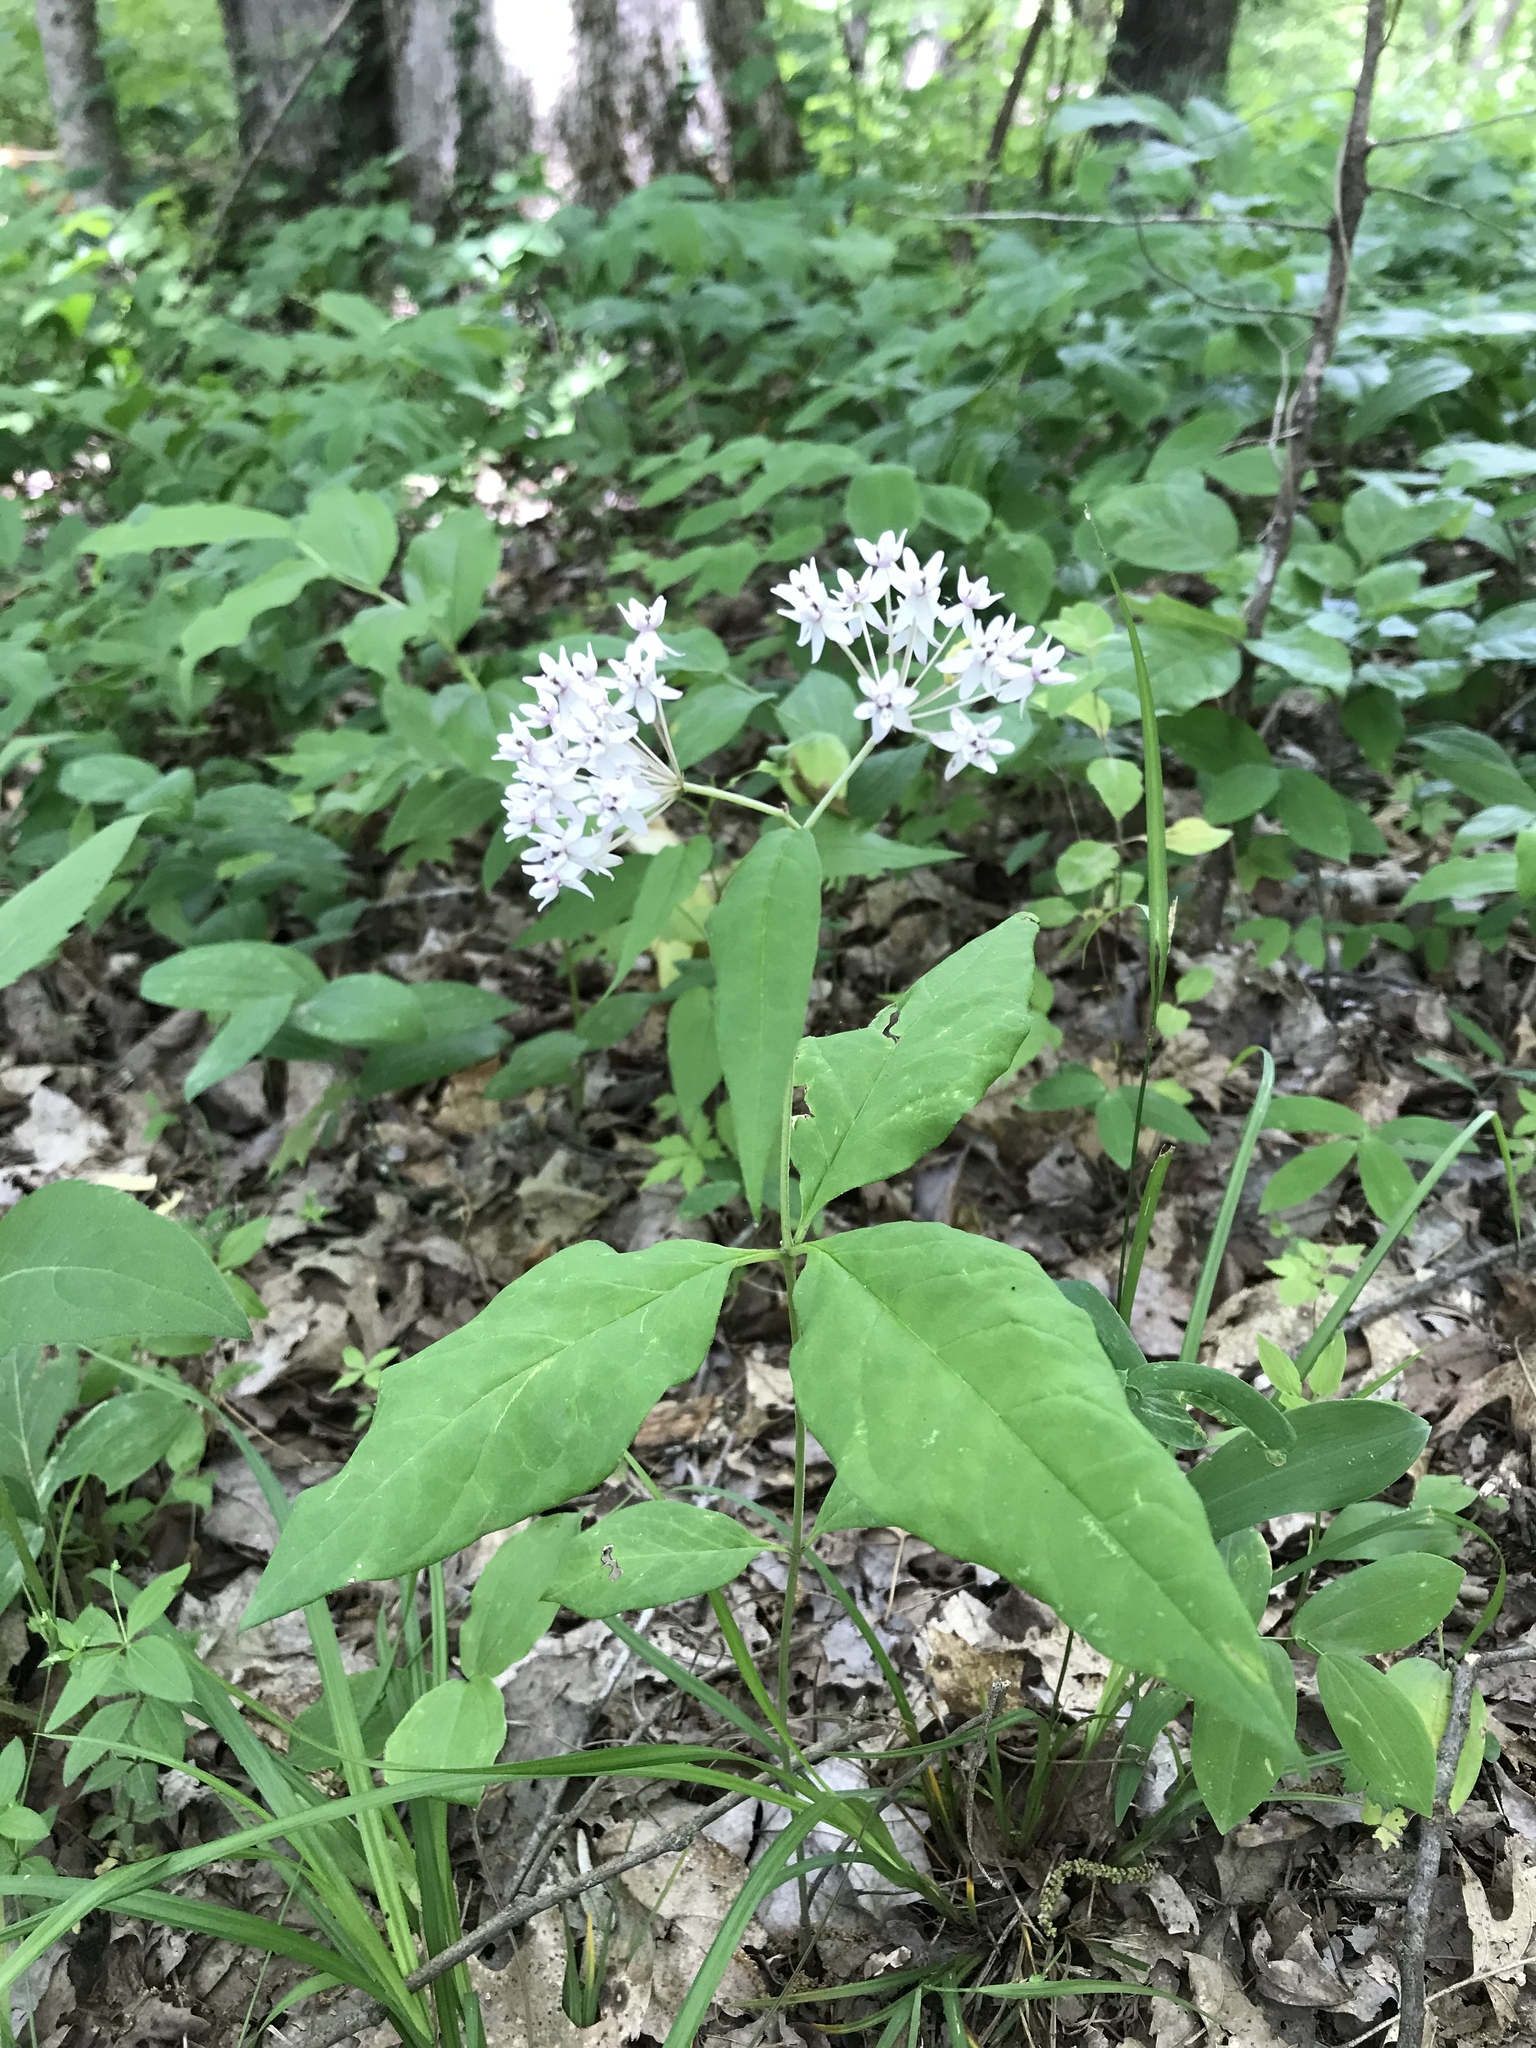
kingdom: Plantae
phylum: Tracheophyta
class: Magnoliopsida
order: Gentianales
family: Apocynaceae
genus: Asclepias
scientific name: Asclepias quadrifolia
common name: Whorled milkweed
